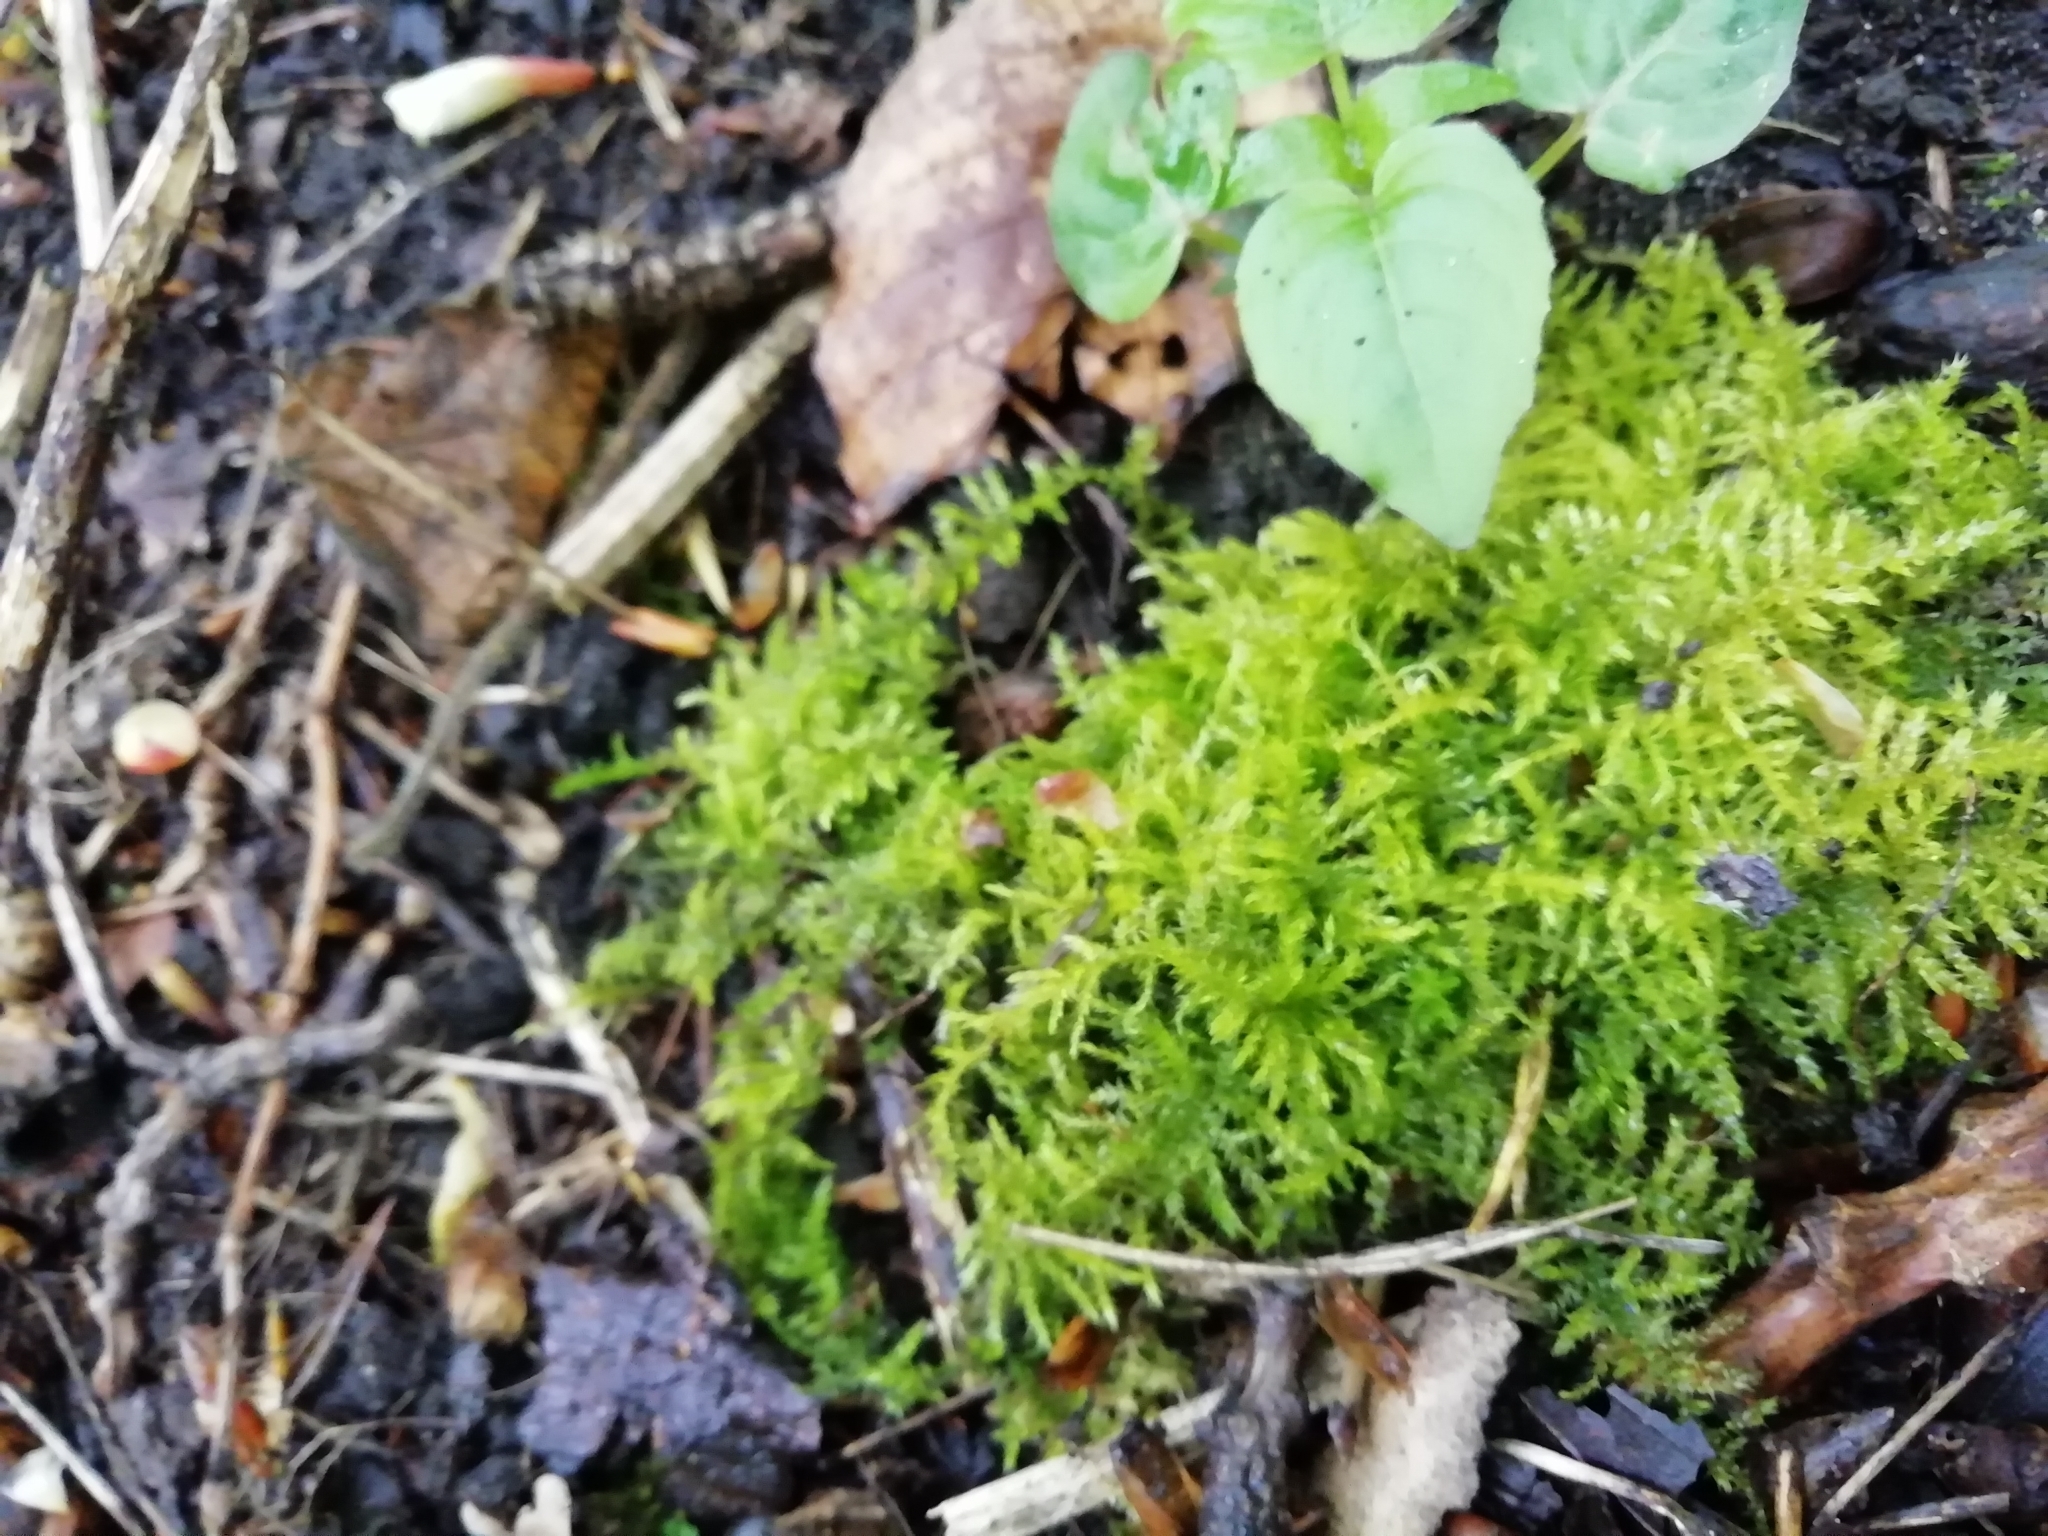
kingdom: Plantae
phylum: Bryophyta
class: Bryopsida
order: Hypnales
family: Brachytheciaceae
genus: Kindbergia
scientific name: Kindbergia praelonga
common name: Slender beaked moss
